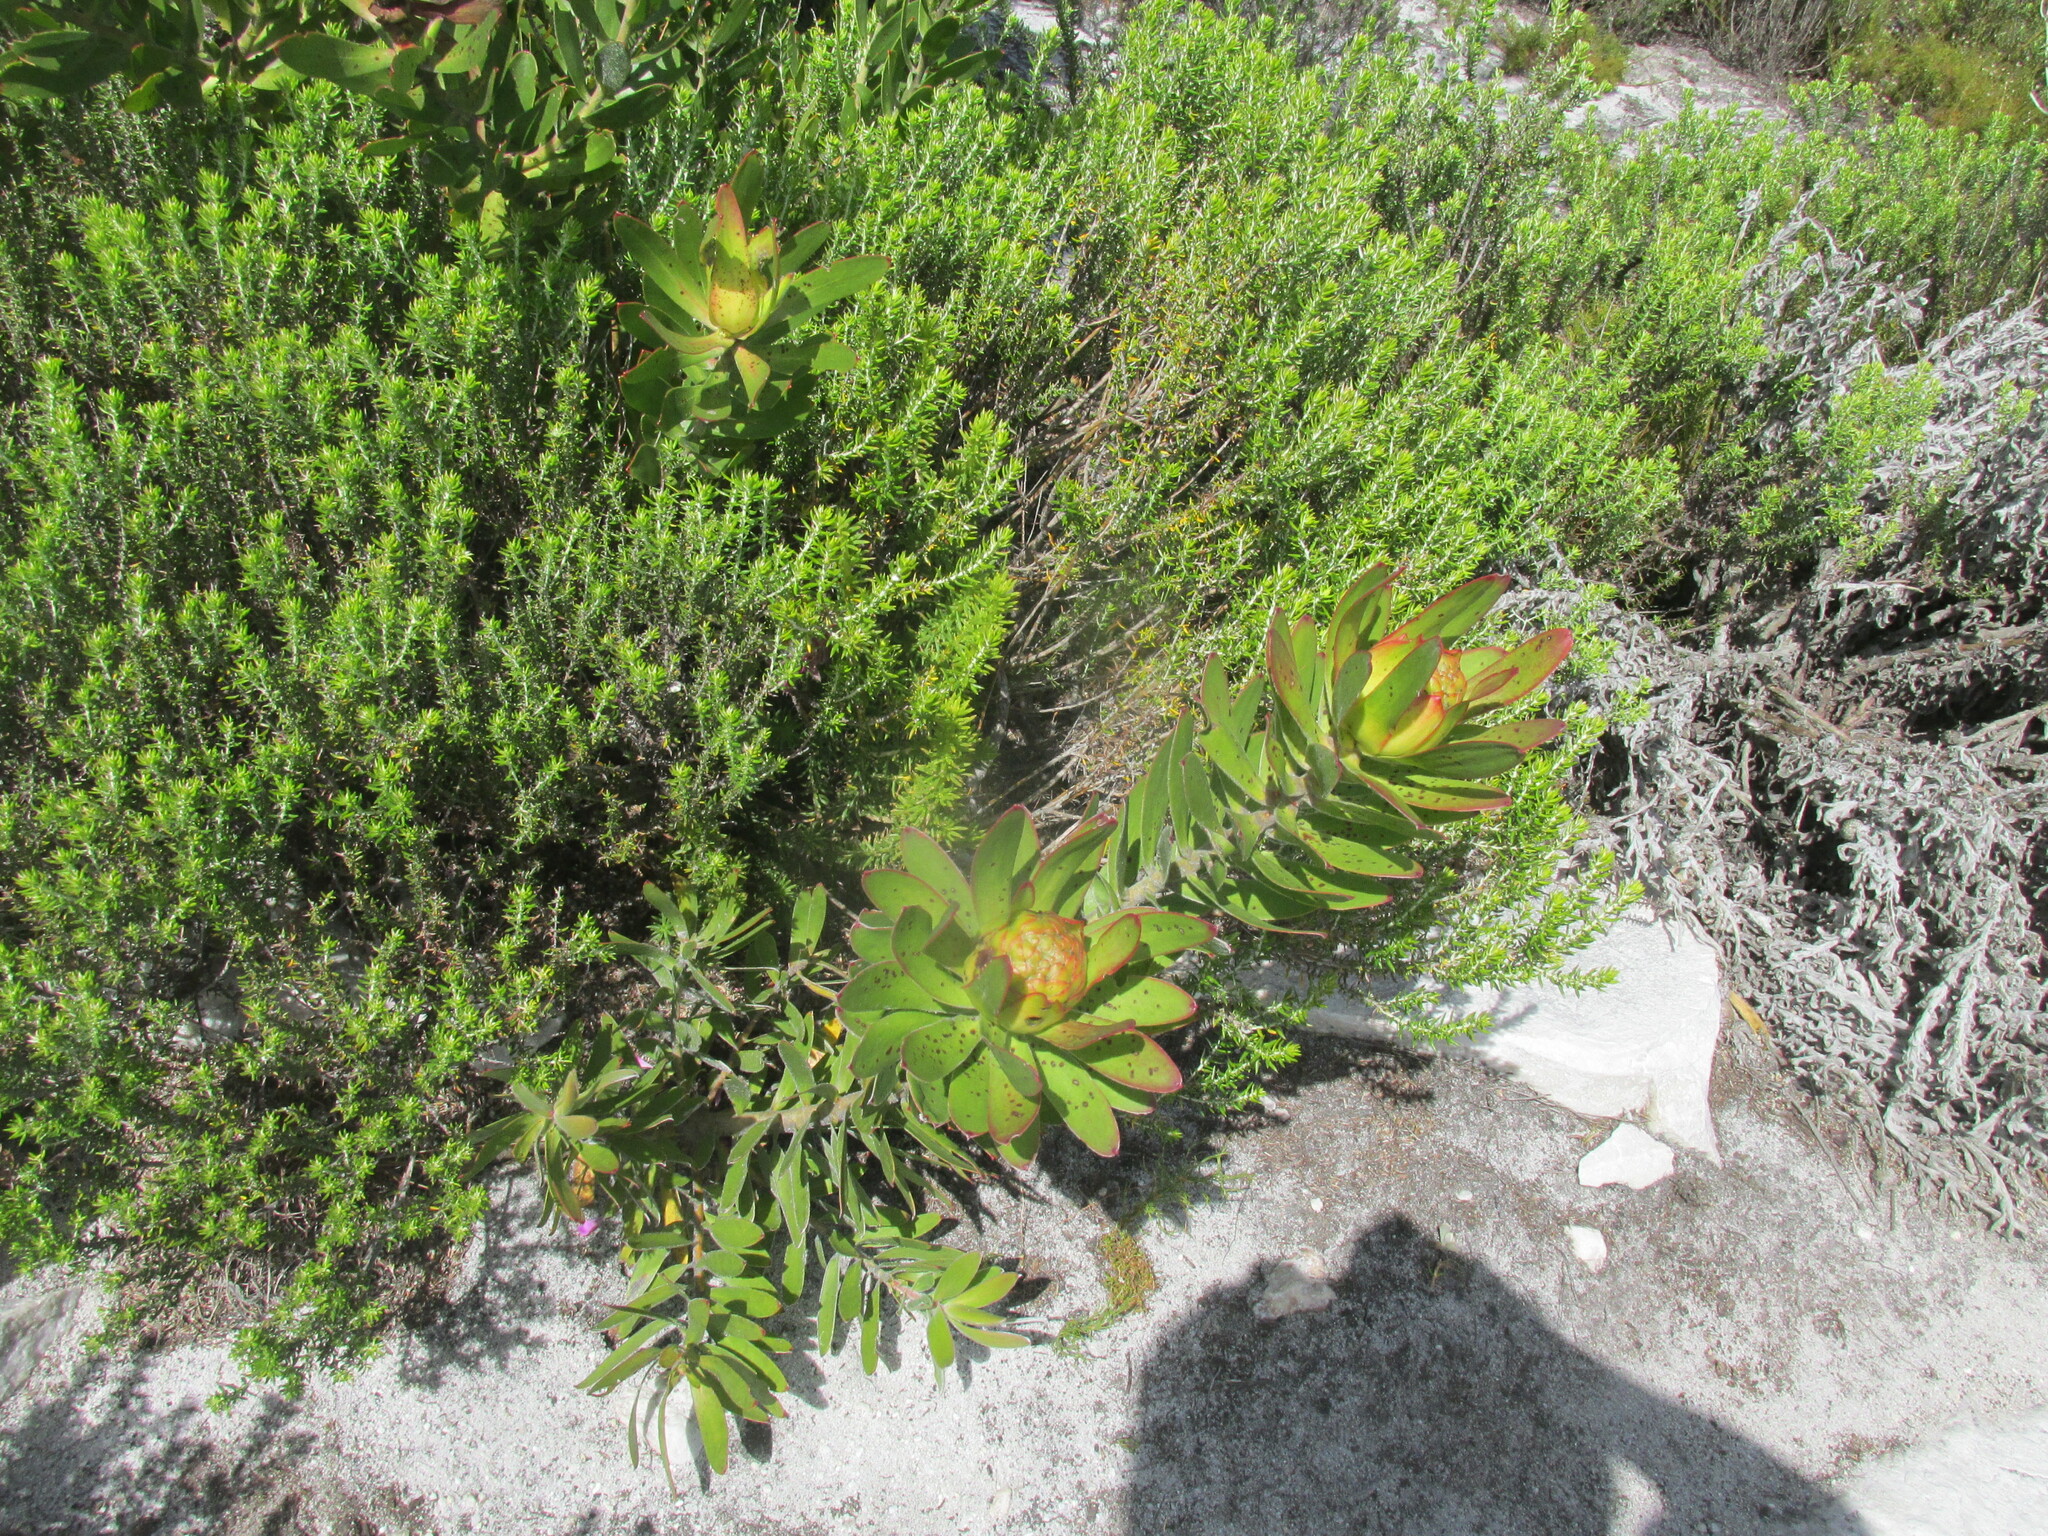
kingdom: Plantae
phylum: Tracheophyta
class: Magnoliopsida
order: Proteales
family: Proteaceae
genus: Leucadendron
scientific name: Leucadendron laureolum
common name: Golden sunshinebush
